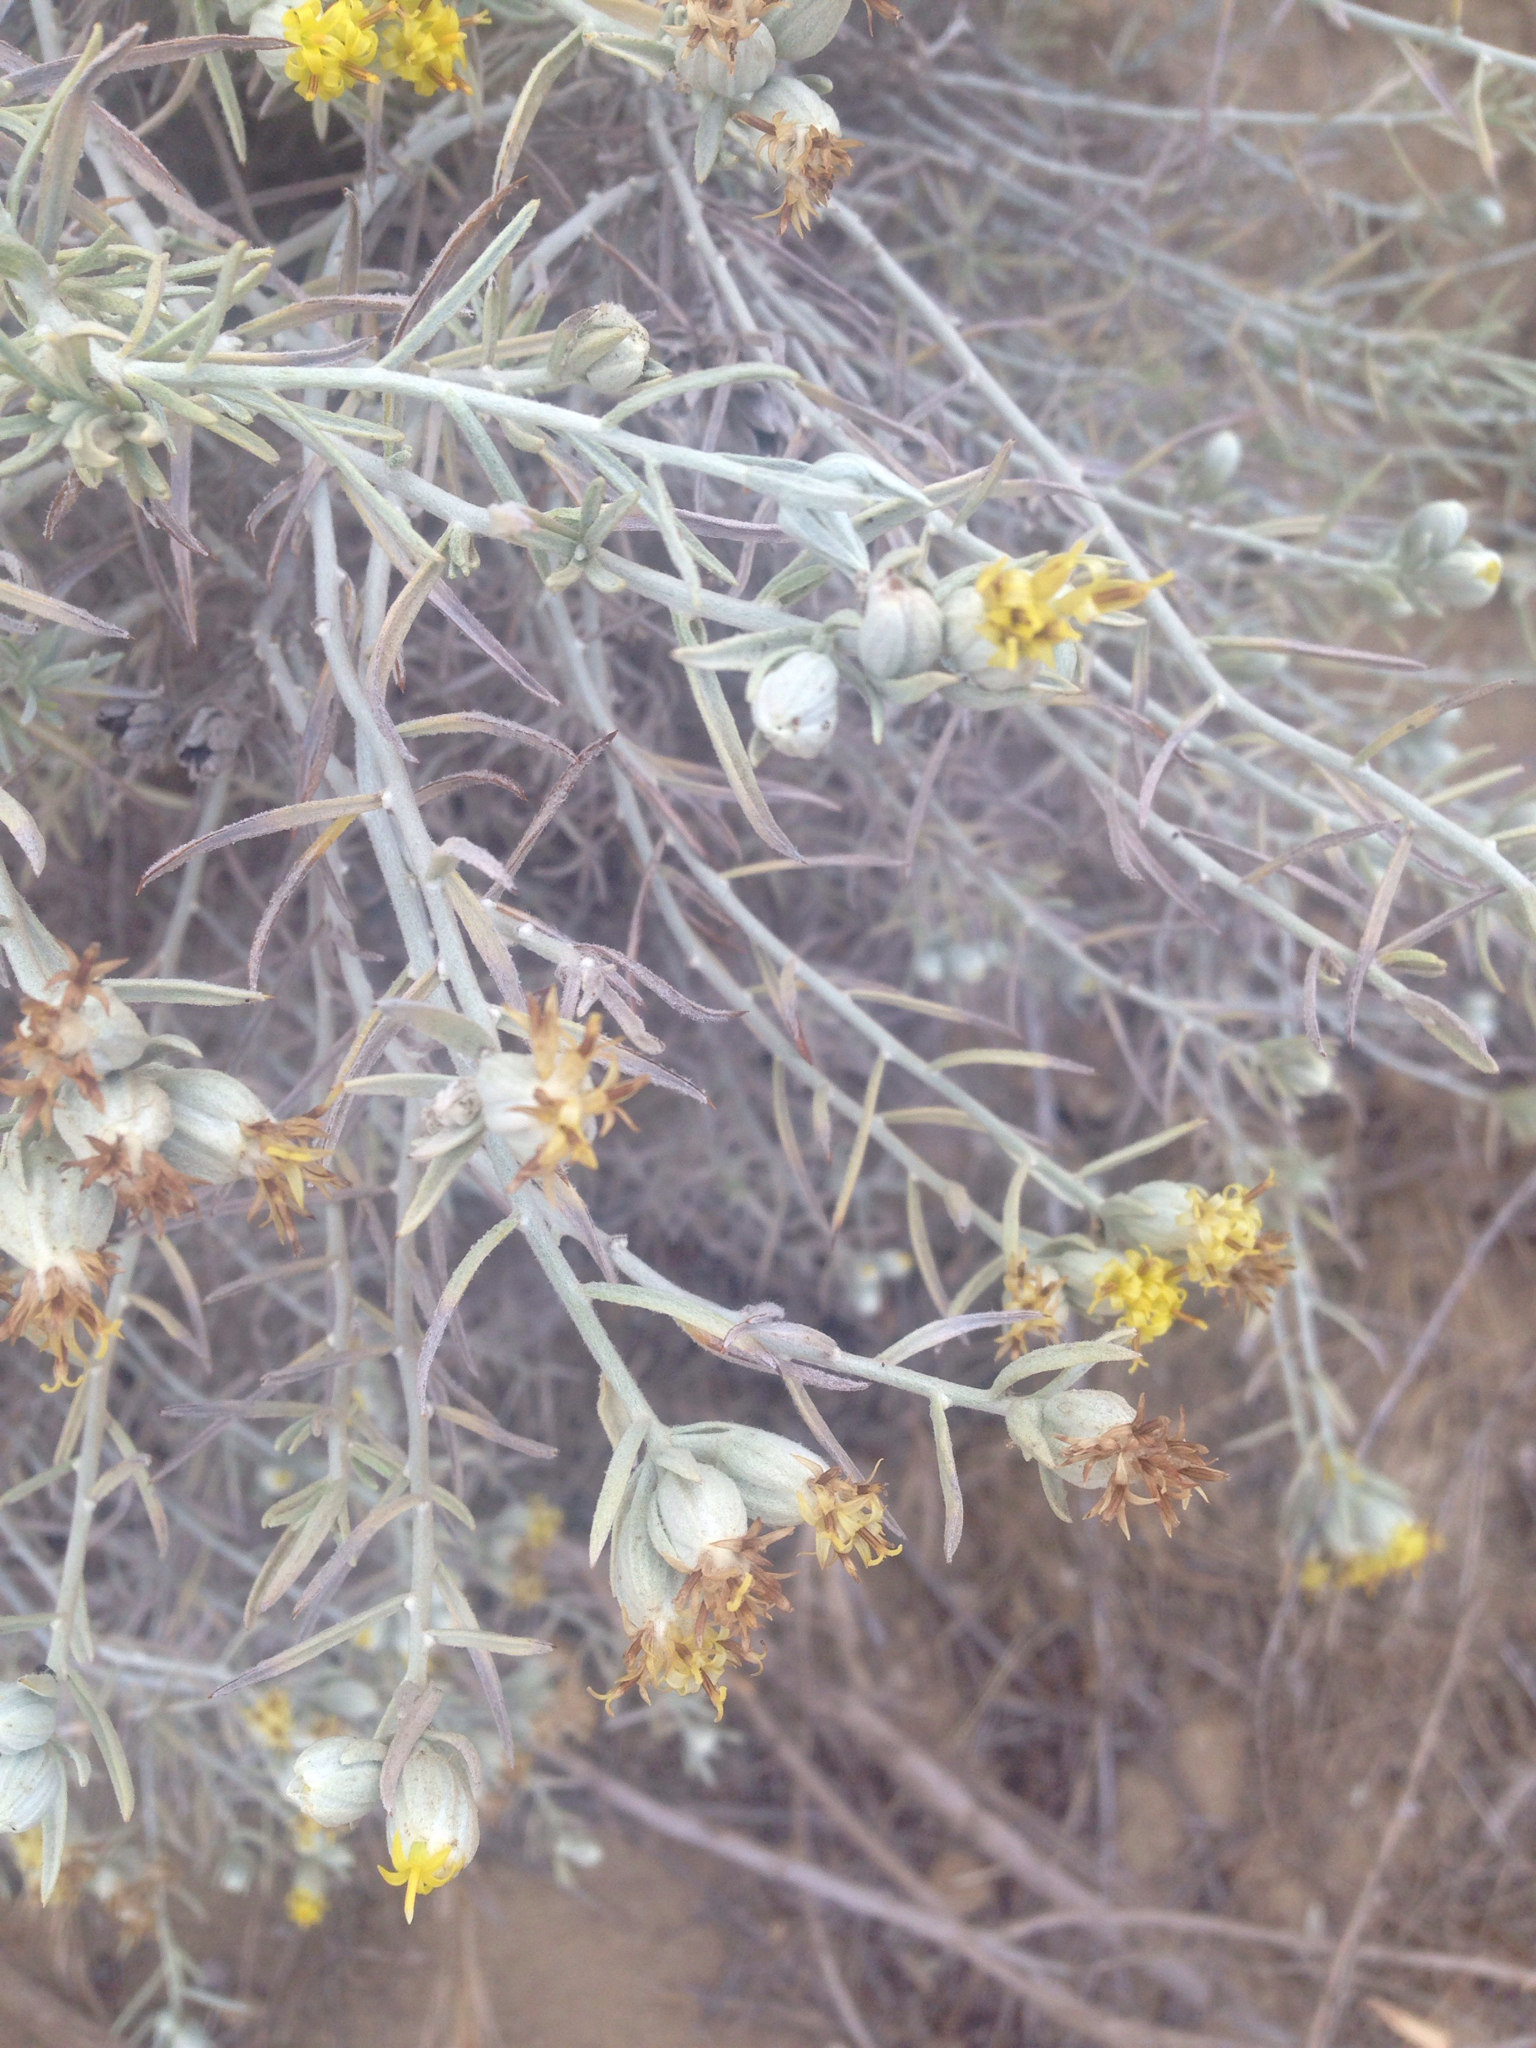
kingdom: Plantae
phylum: Tracheophyta
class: Magnoliopsida
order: Asterales
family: Asteraceae
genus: Tetradymia
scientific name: Tetradymia comosa
